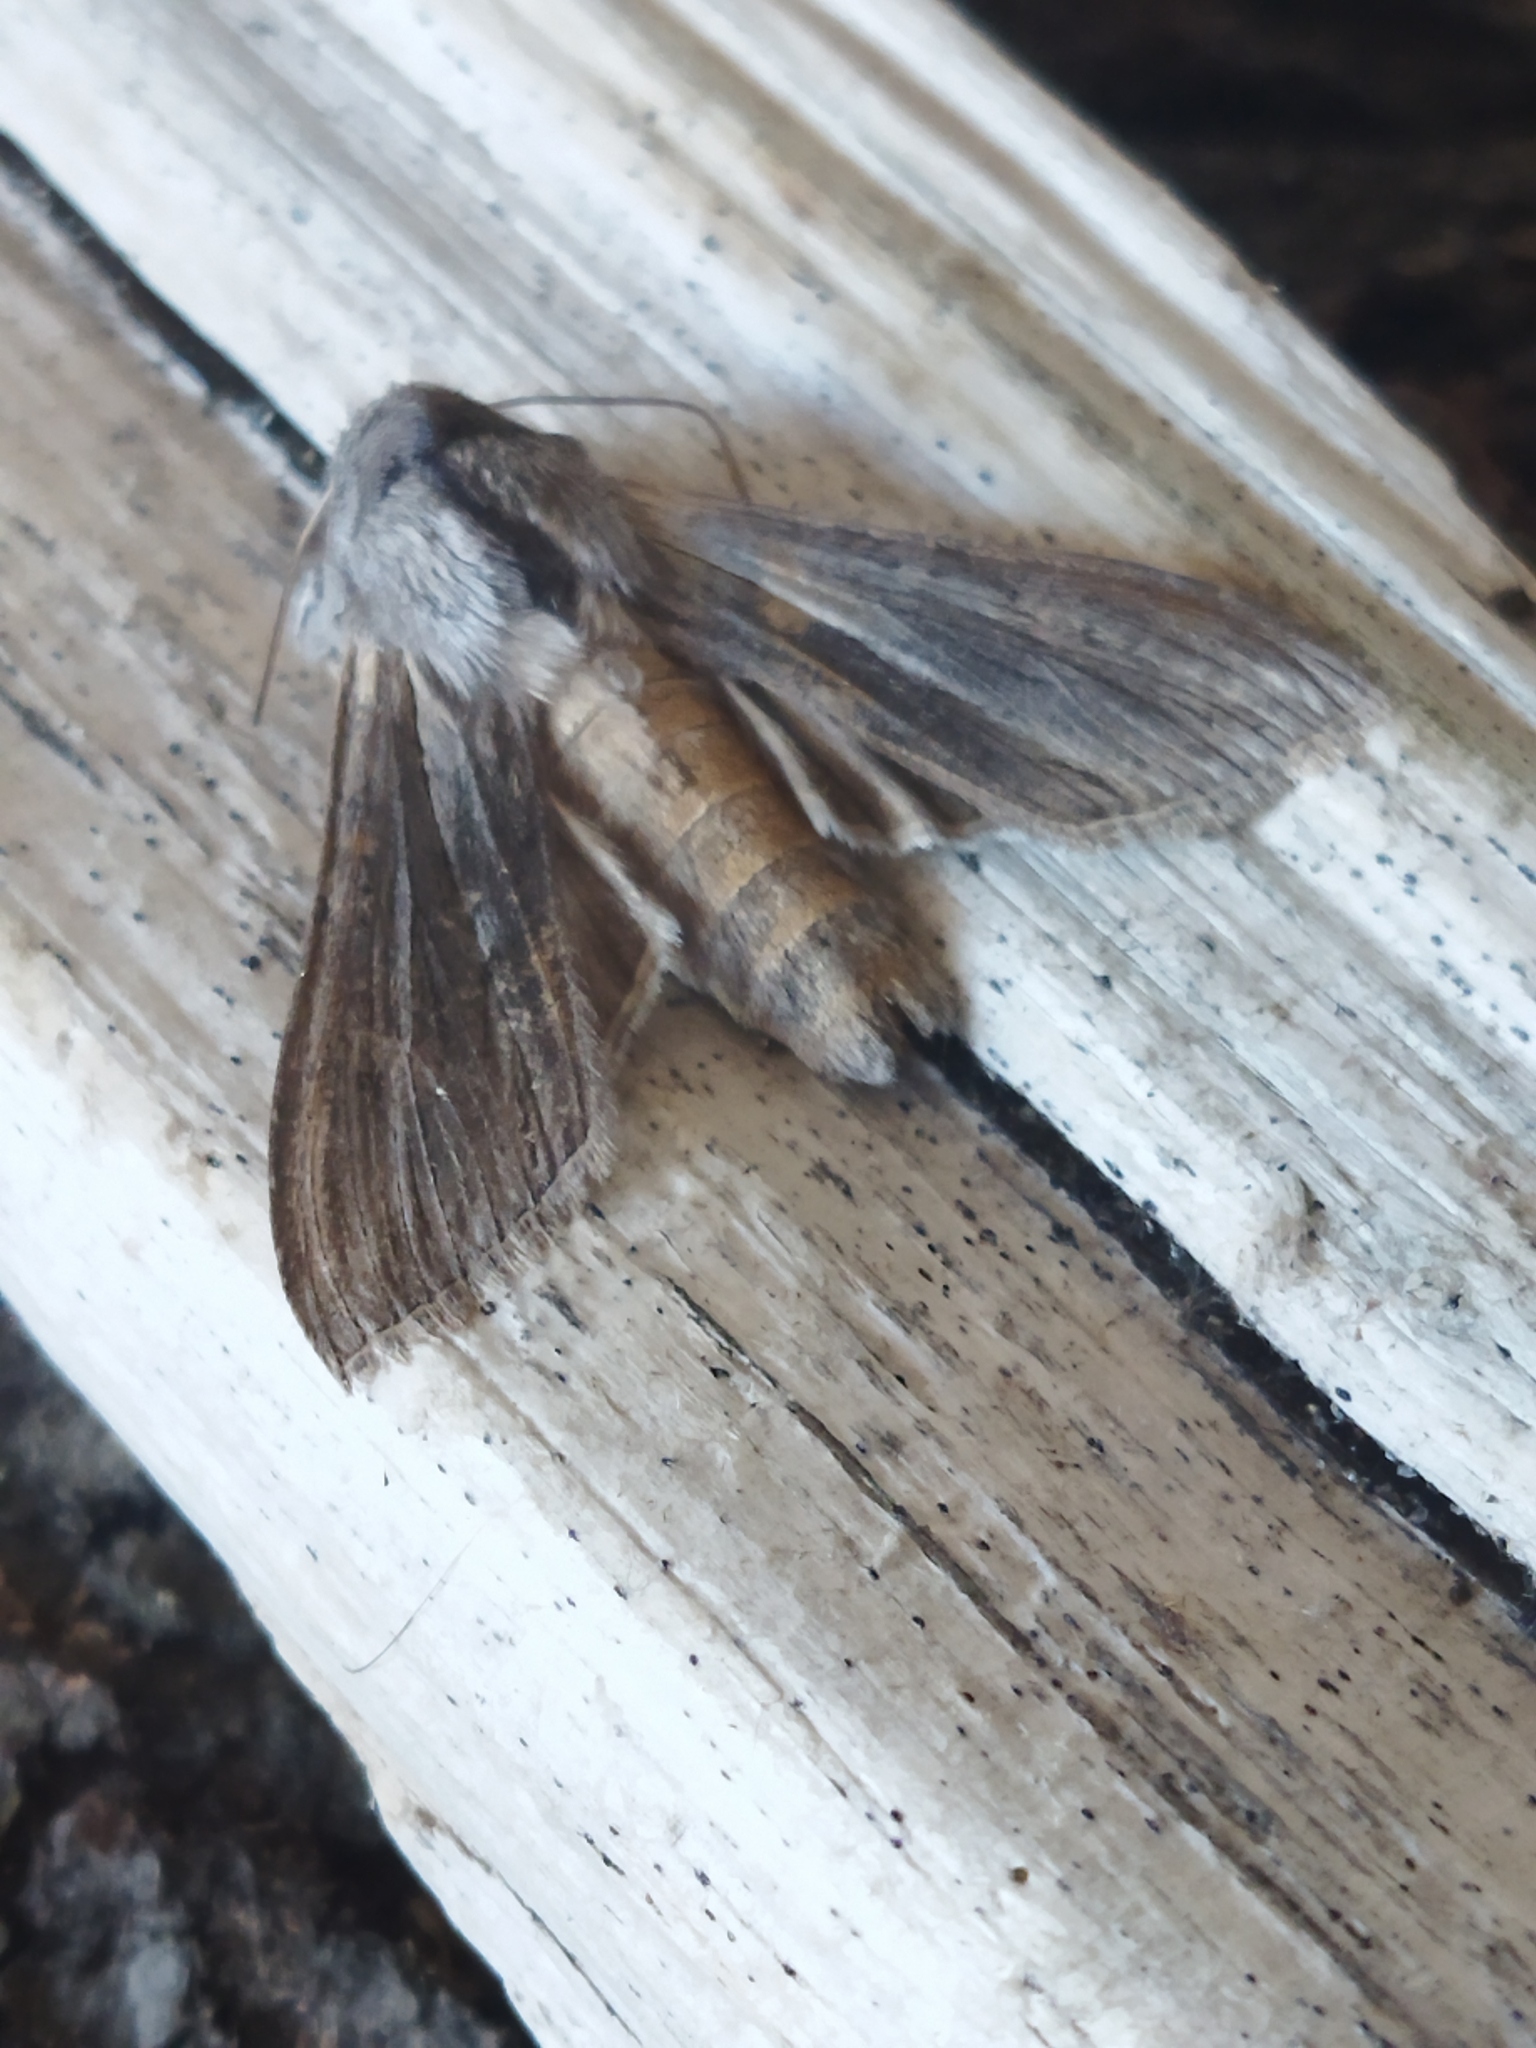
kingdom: Animalia
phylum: Arthropoda
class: Insecta
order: Lepidoptera
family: Noctuidae
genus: Cucullia
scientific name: Cucullia chamomillae
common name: Chamomile shark
